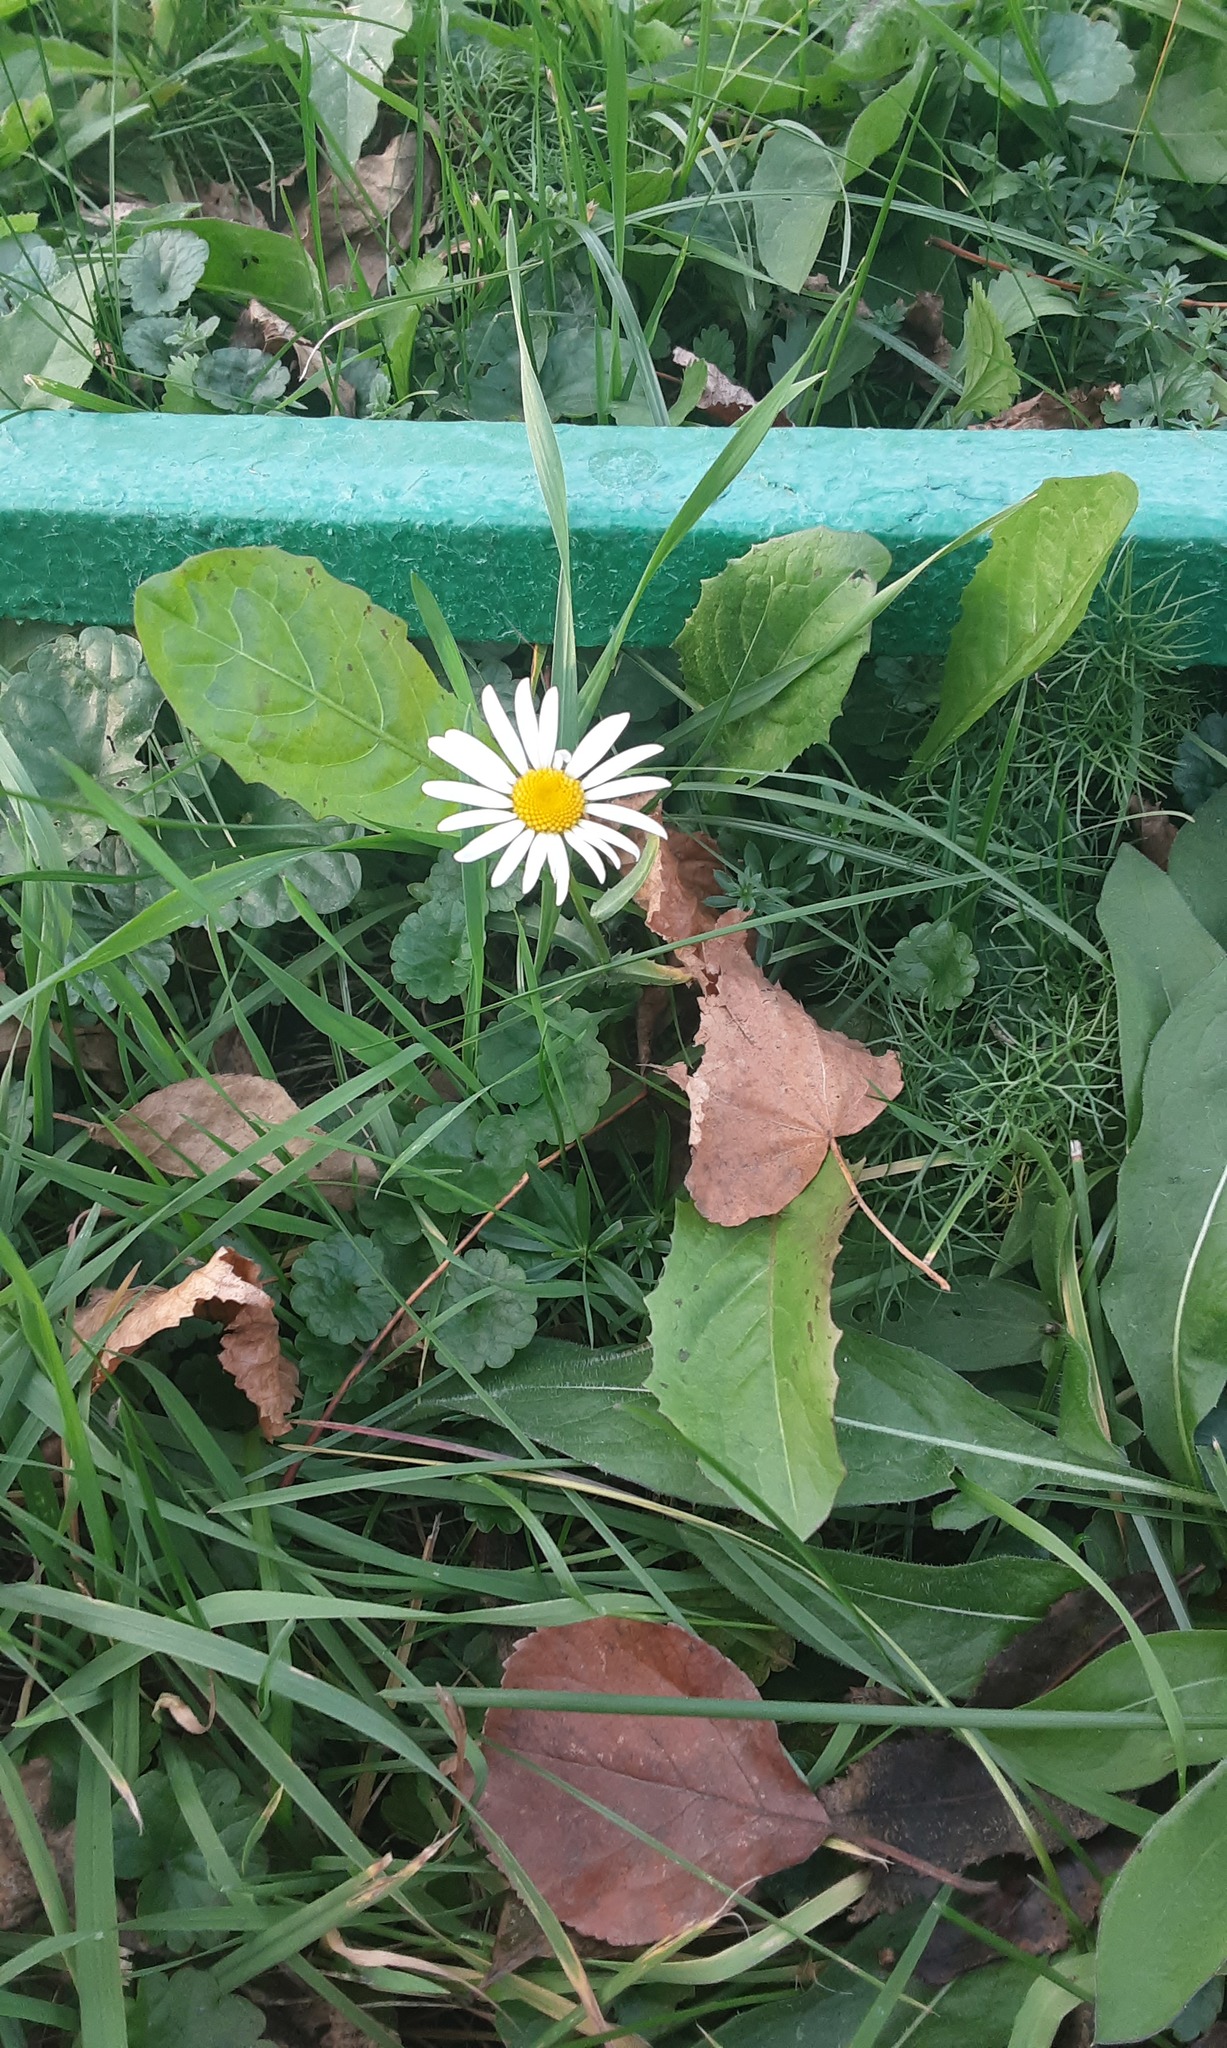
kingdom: Plantae
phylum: Tracheophyta
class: Magnoliopsida
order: Asterales
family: Asteraceae
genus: Leucanthemum
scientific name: Leucanthemum vulgare
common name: Oxeye daisy
